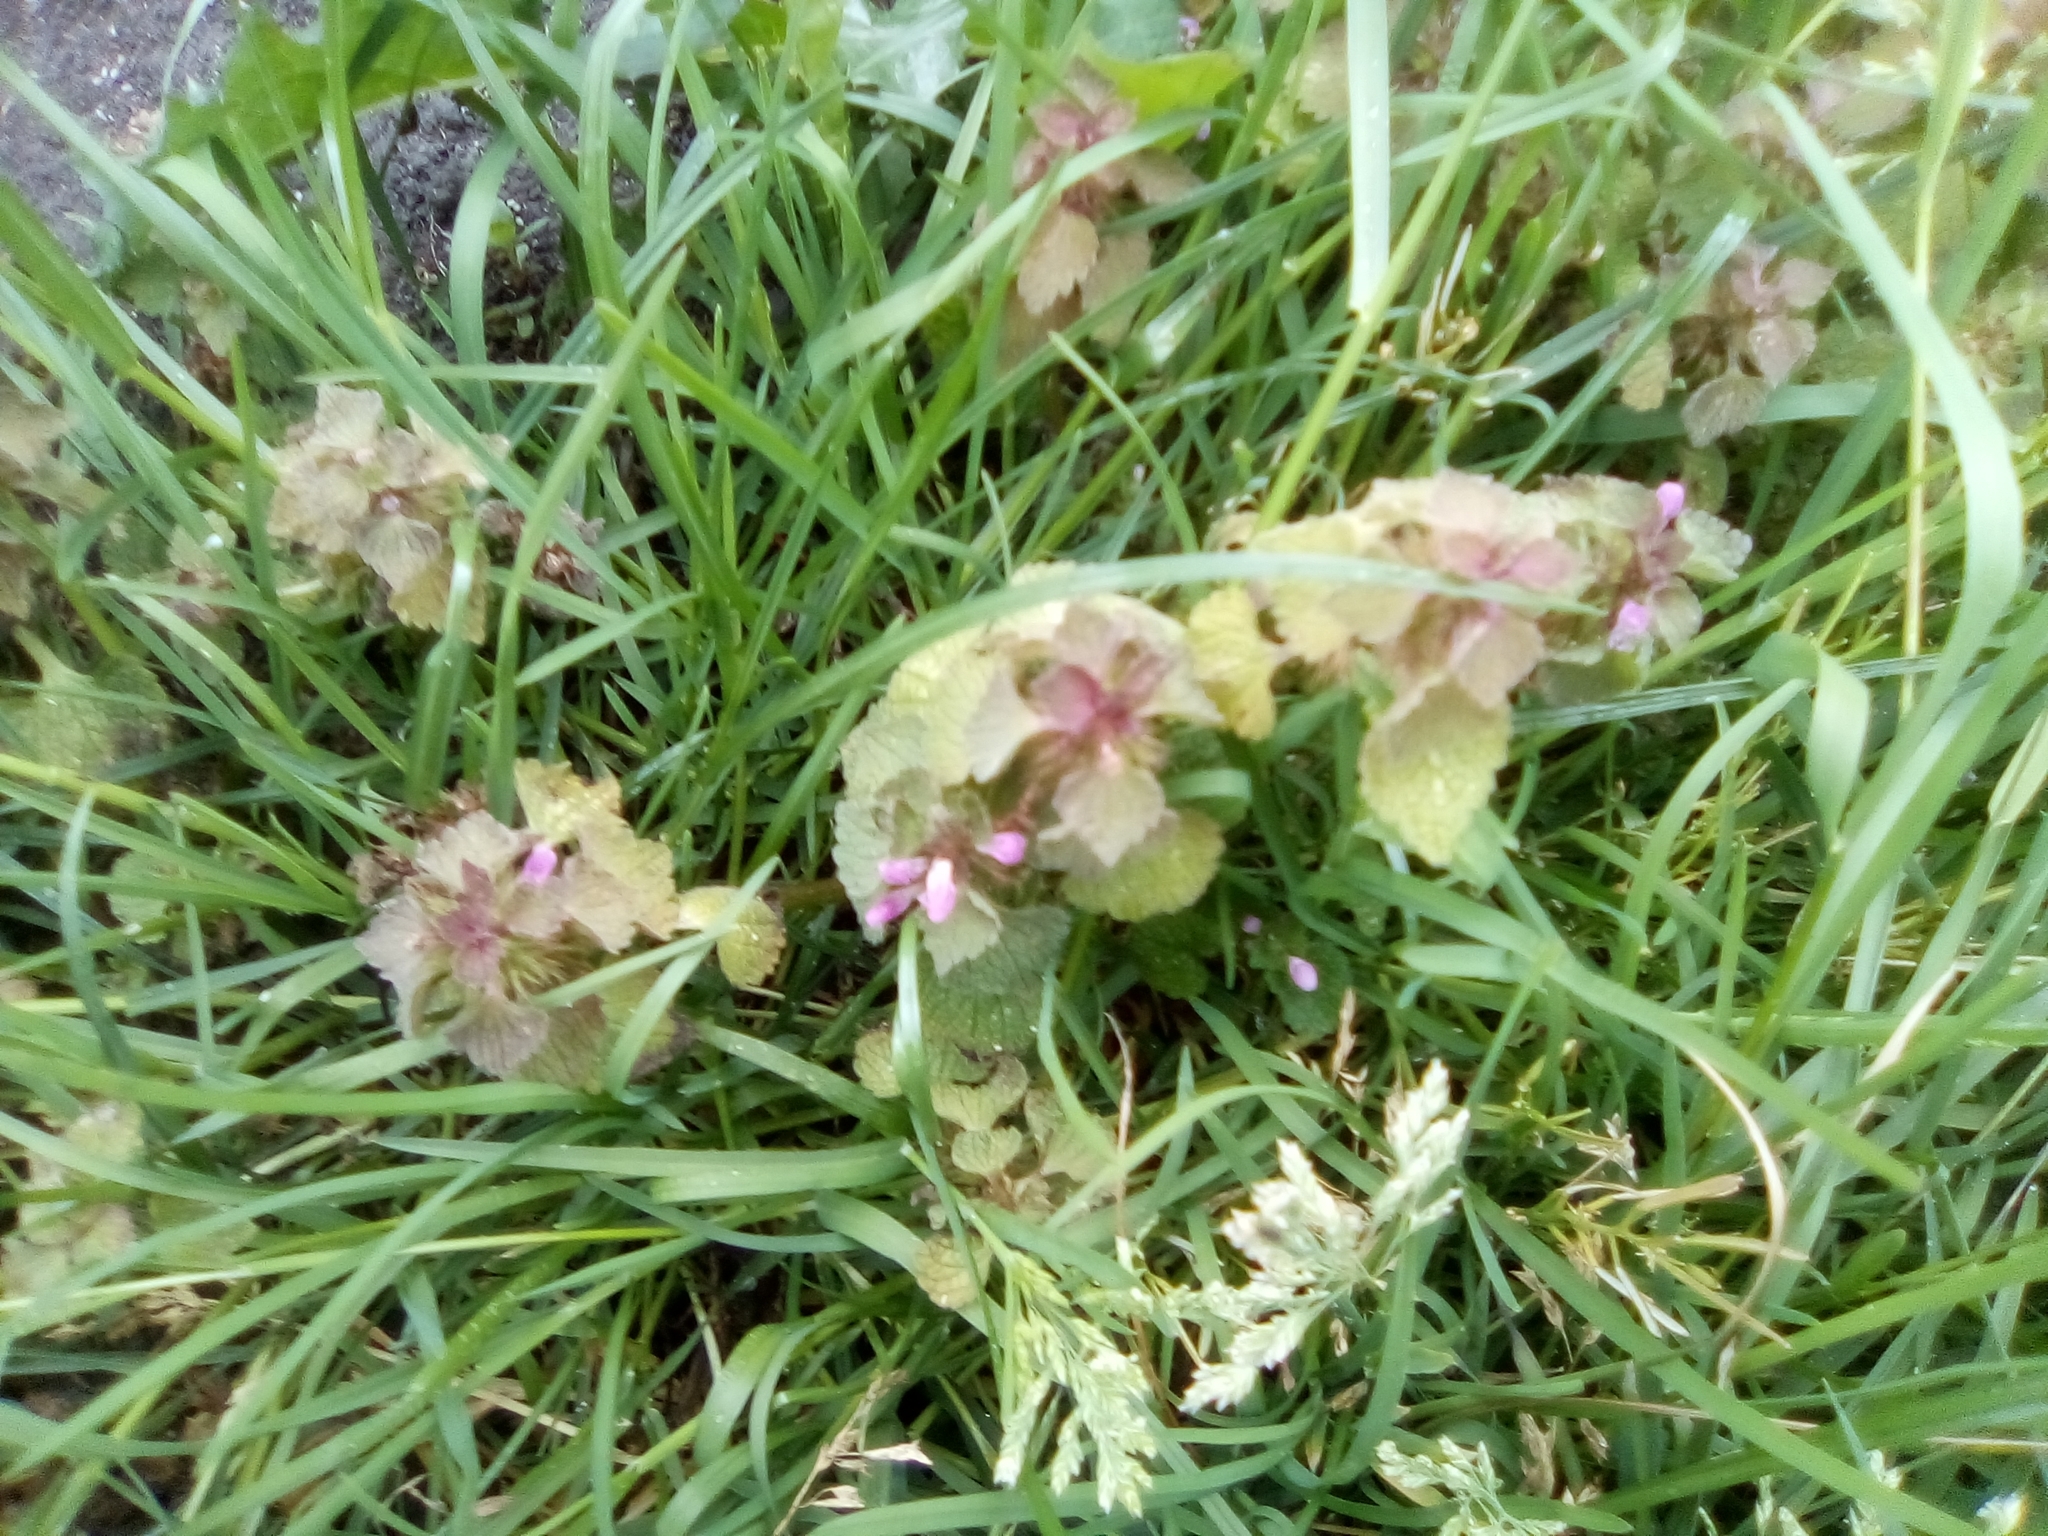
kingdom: Plantae
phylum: Tracheophyta
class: Magnoliopsida
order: Lamiales
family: Lamiaceae
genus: Lamium
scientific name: Lamium purpureum
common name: Red dead-nettle
